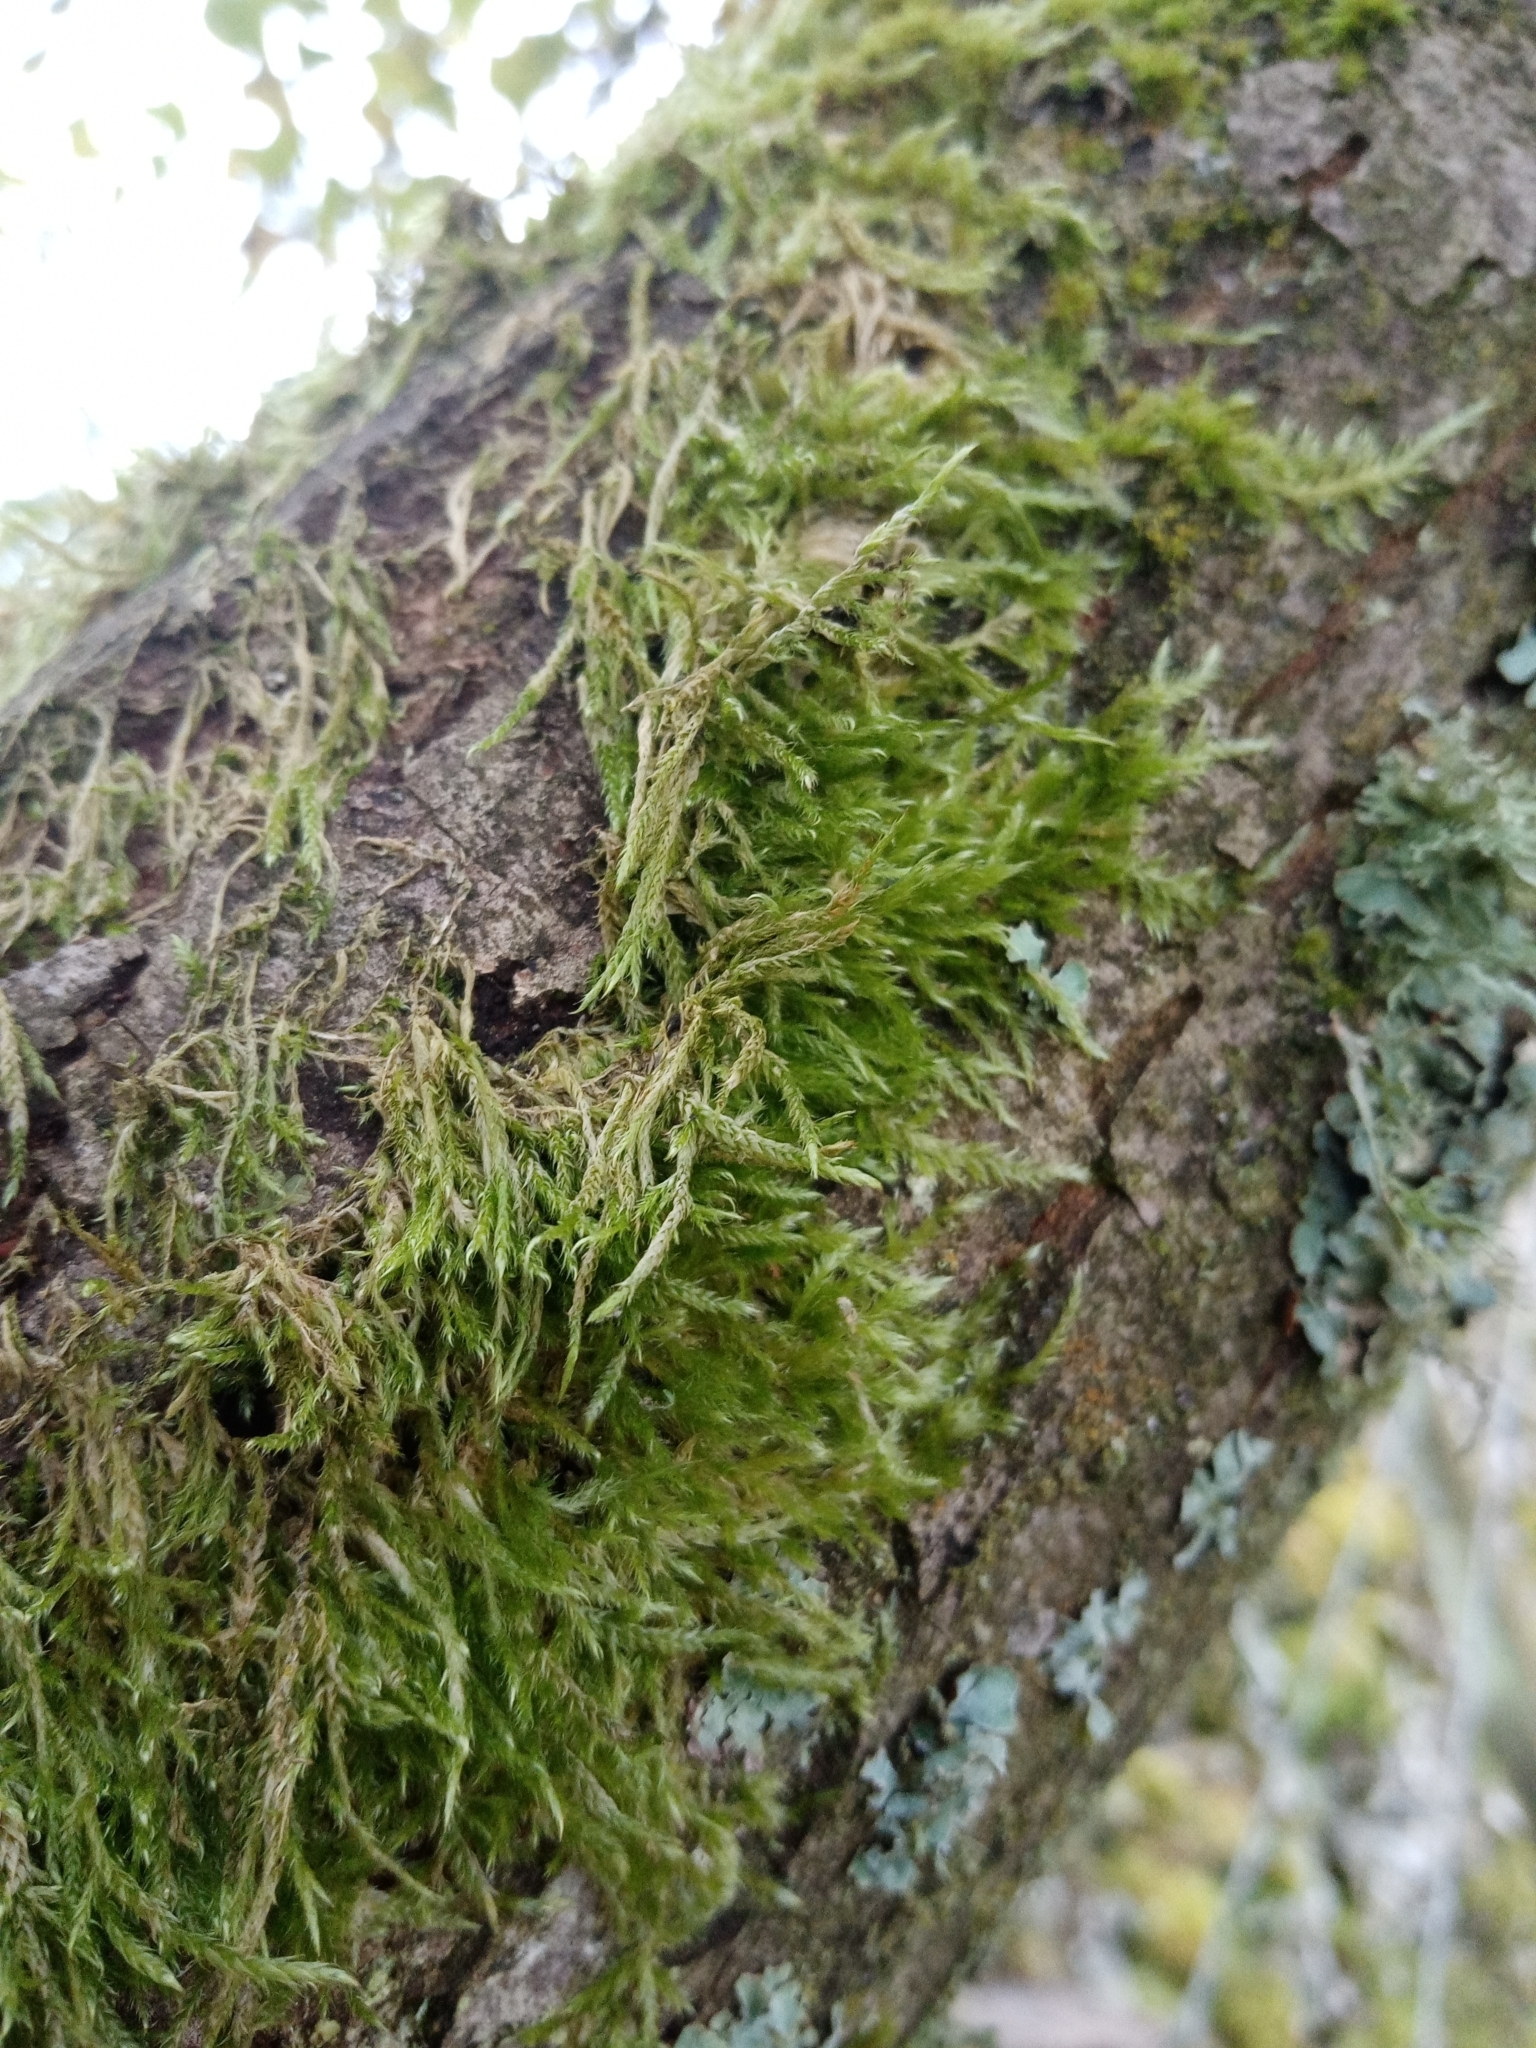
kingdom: Plantae
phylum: Bryophyta
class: Bryopsida
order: Hypnales
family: Hypnaceae
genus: Hypnum
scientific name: Hypnum cupressiforme
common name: Cypress-leaved plait-moss
